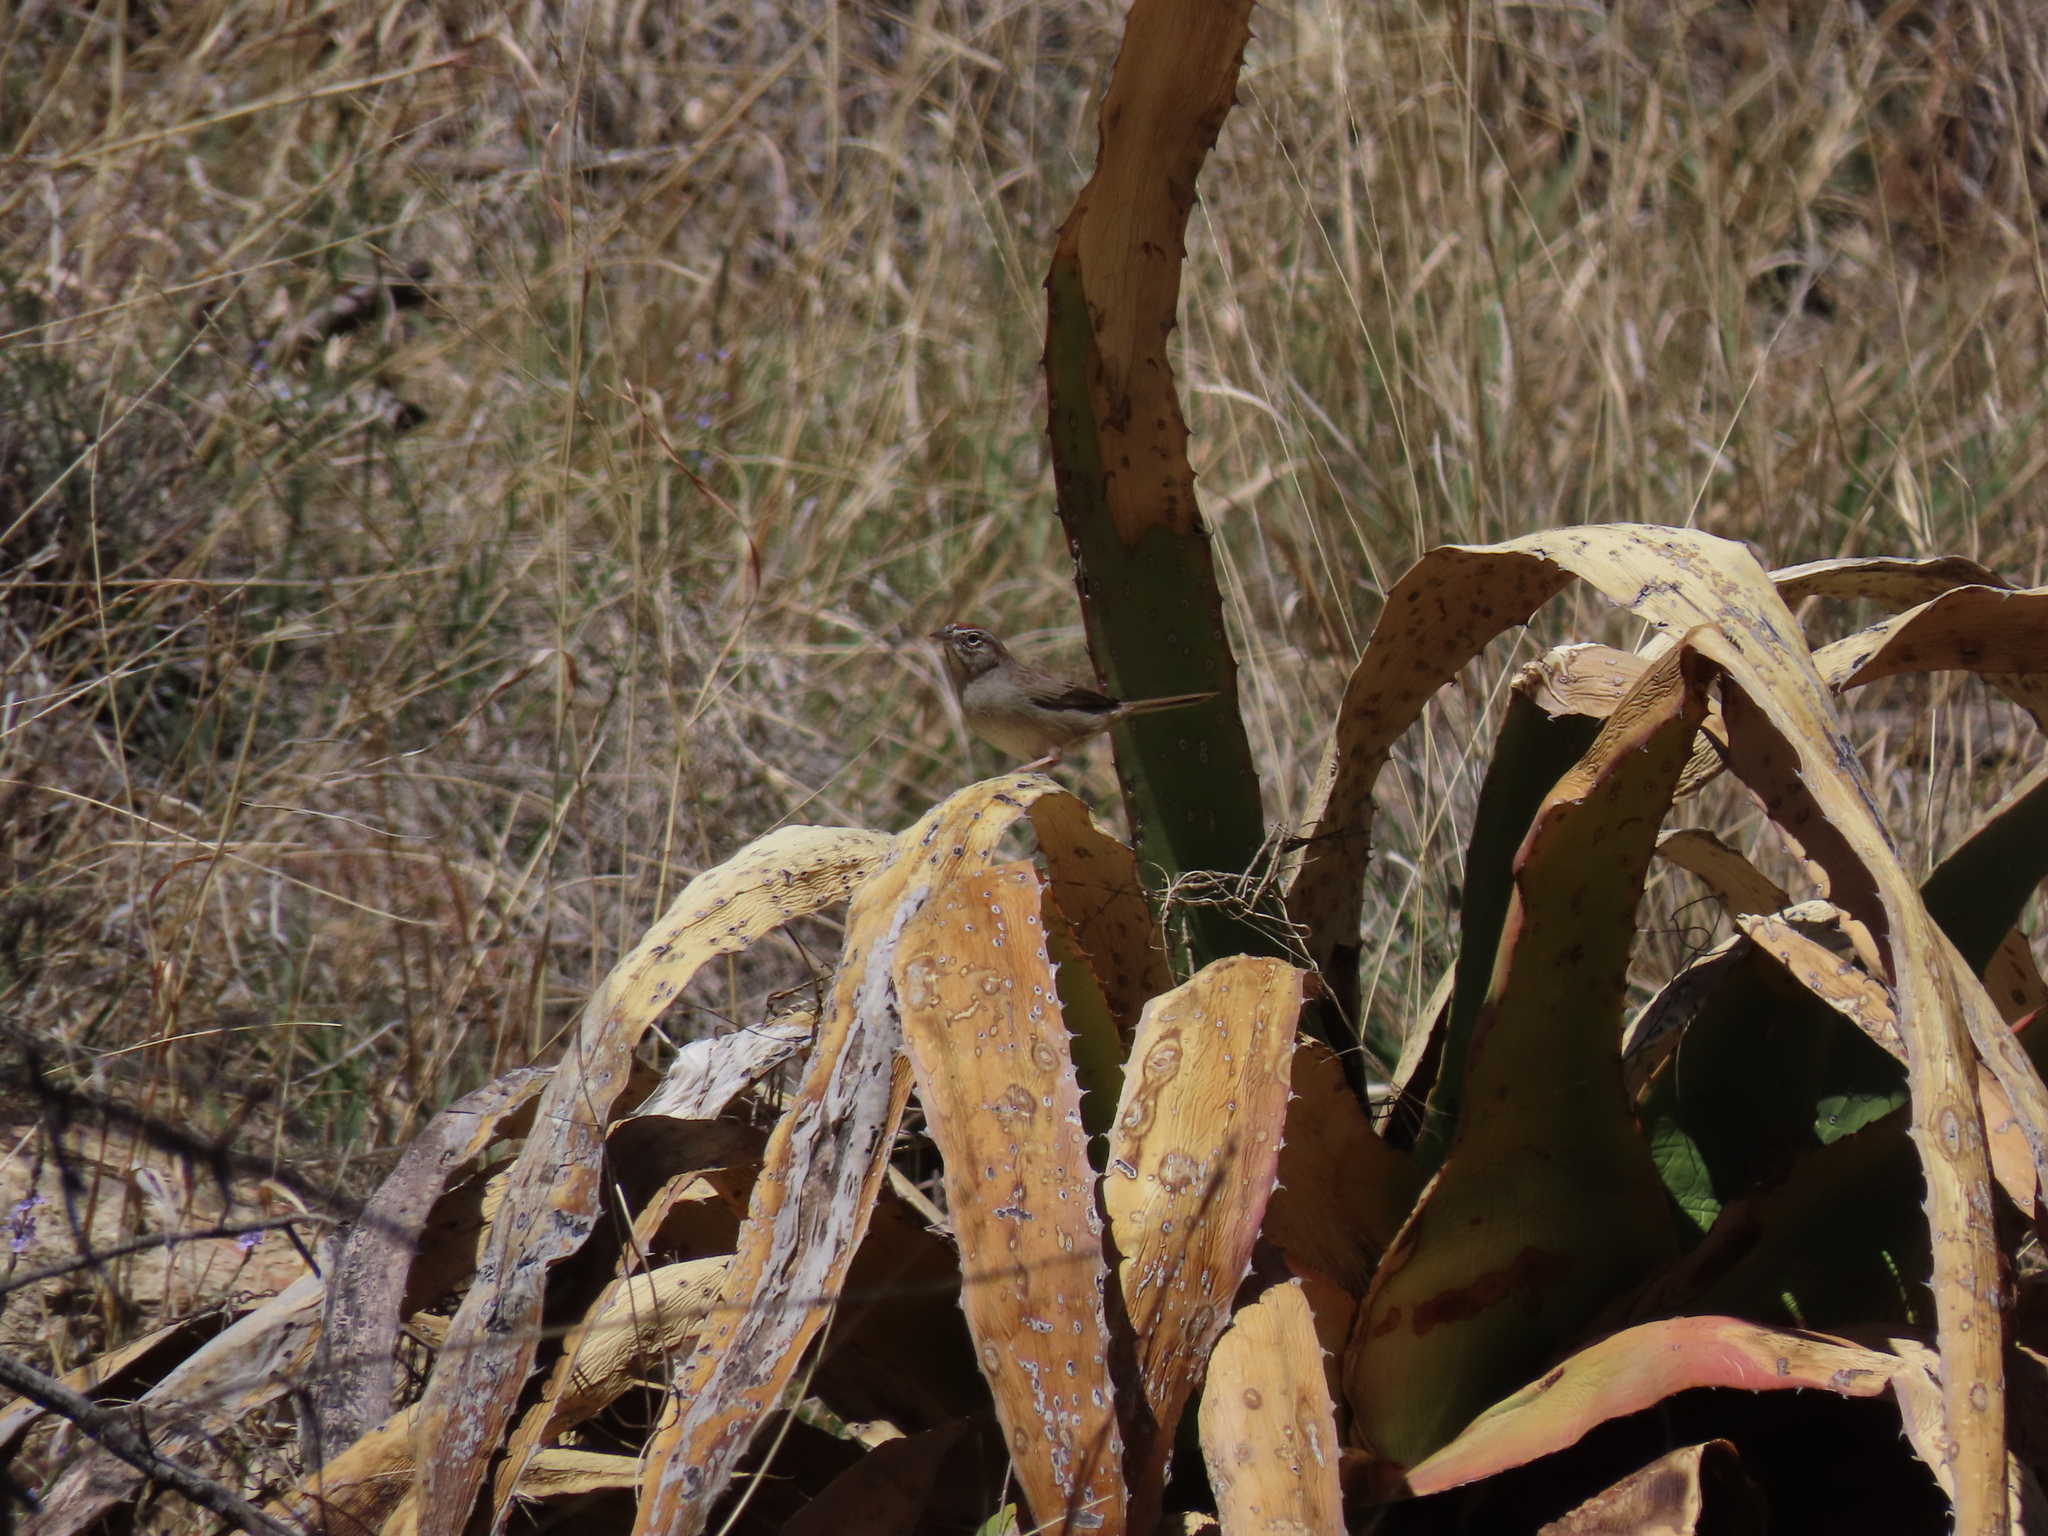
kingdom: Animalia
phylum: Chordata
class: Aves
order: Passeriformes
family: Passerellidae
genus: Aimophila
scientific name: Aimophila ruficeps
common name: Rufous-crowned sparrow
